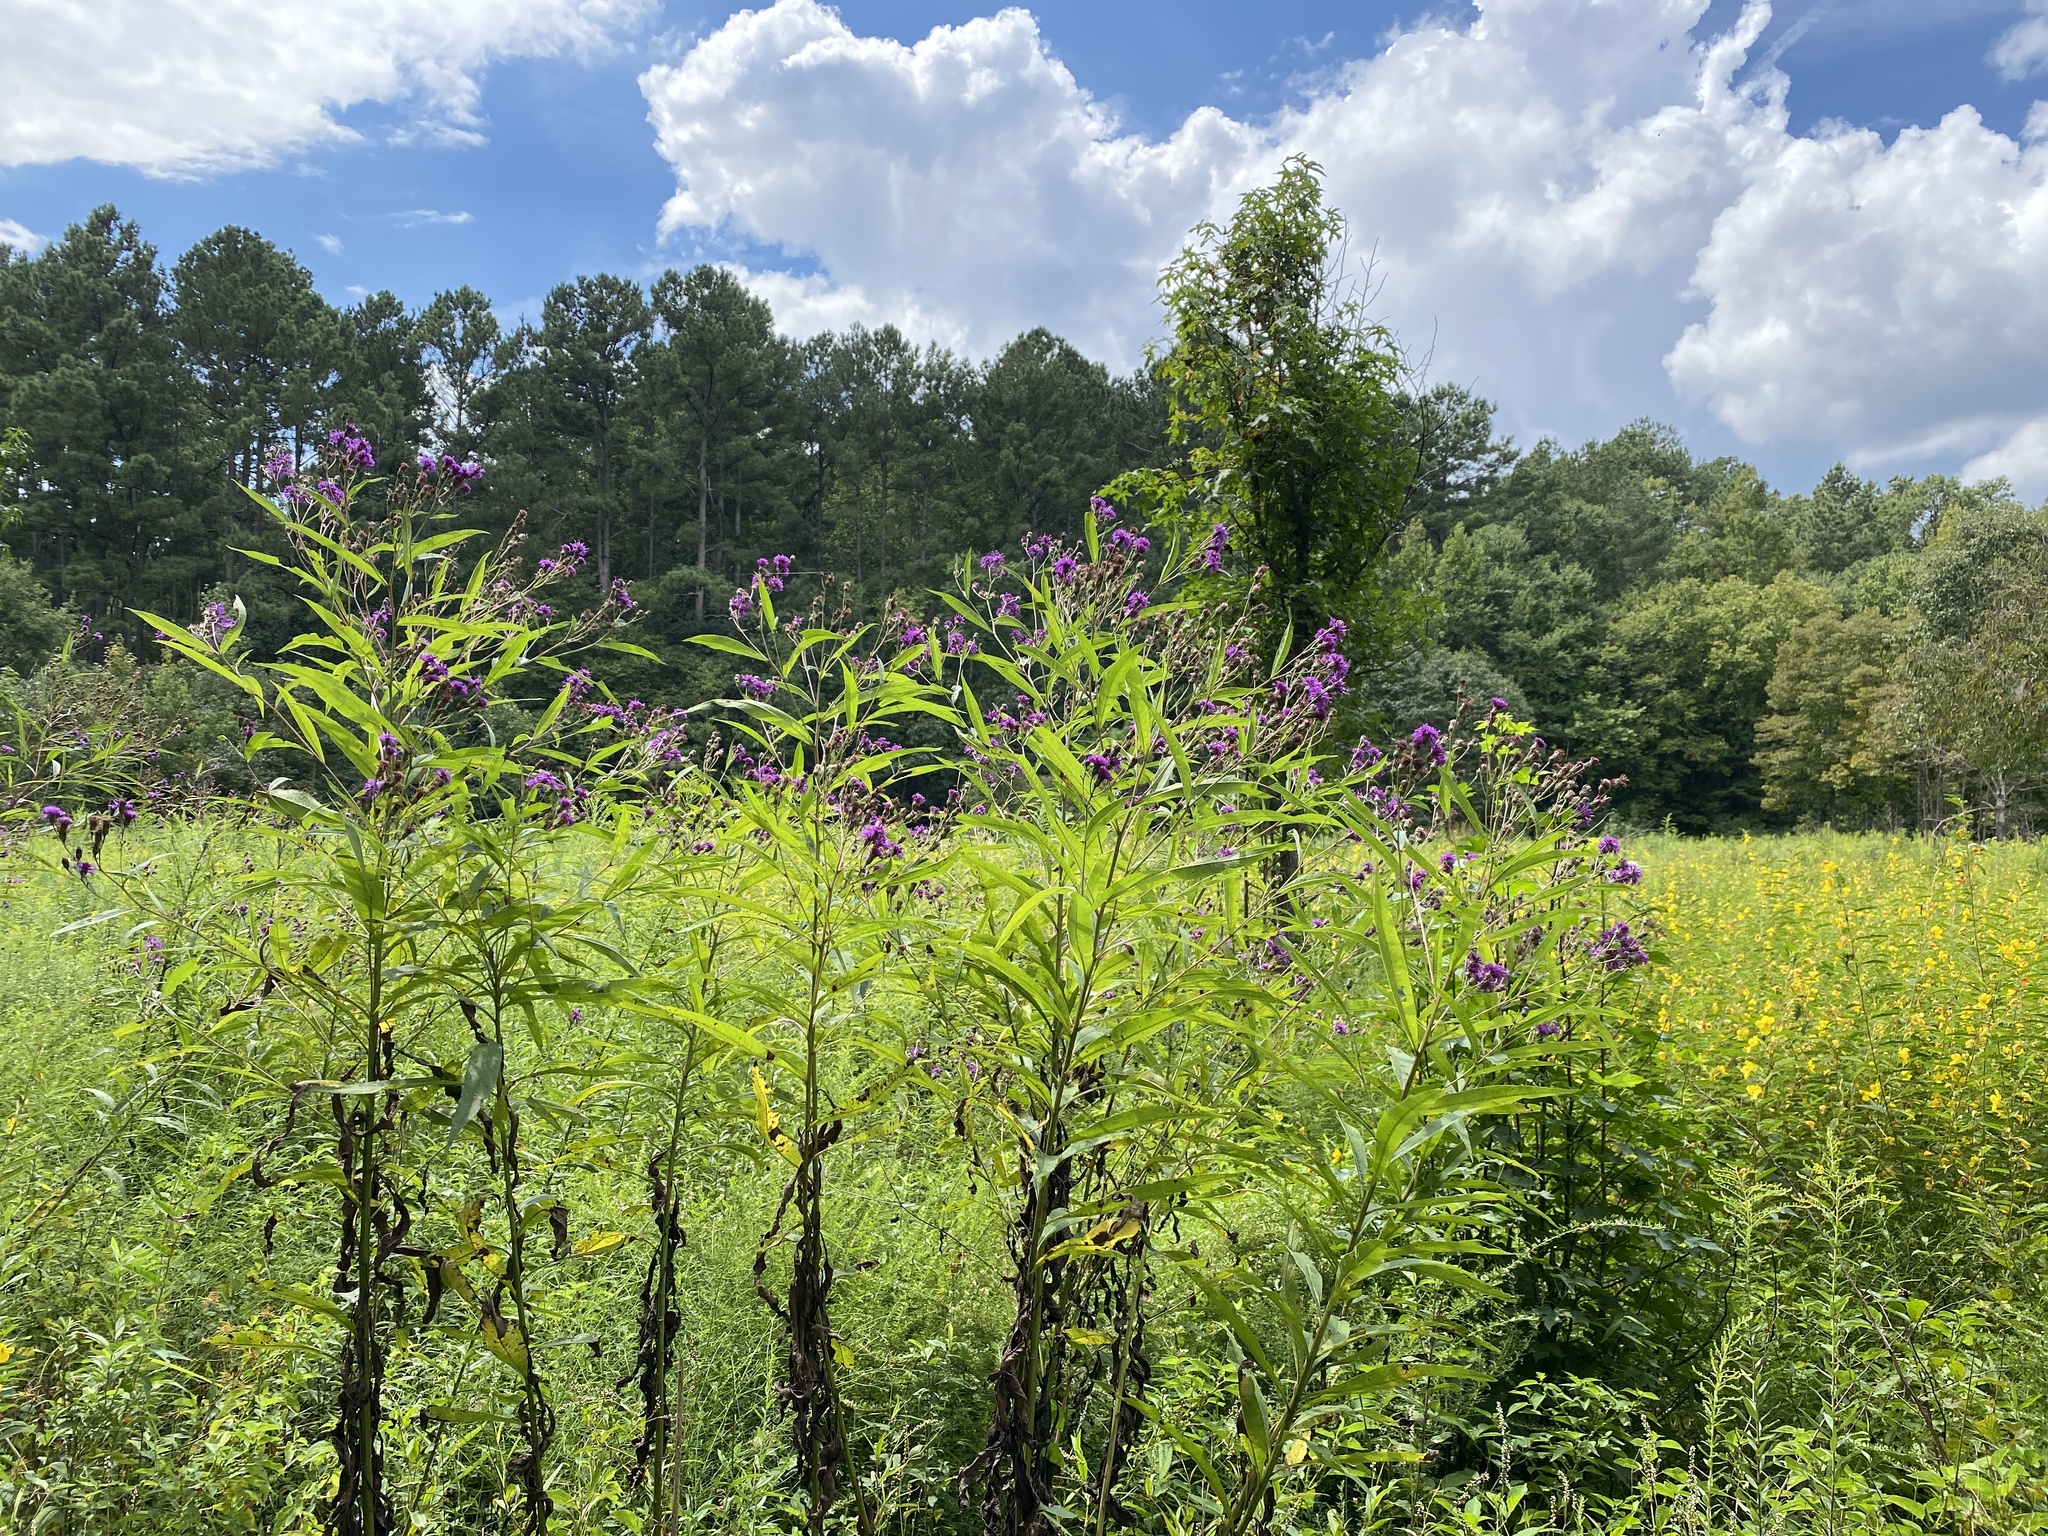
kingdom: Plantae
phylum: Tracheophyta
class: Magnoliopsida
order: Asterales
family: Asteraceae
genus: Vernonia
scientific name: Vernonia noveboracensis
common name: New york ironweed
